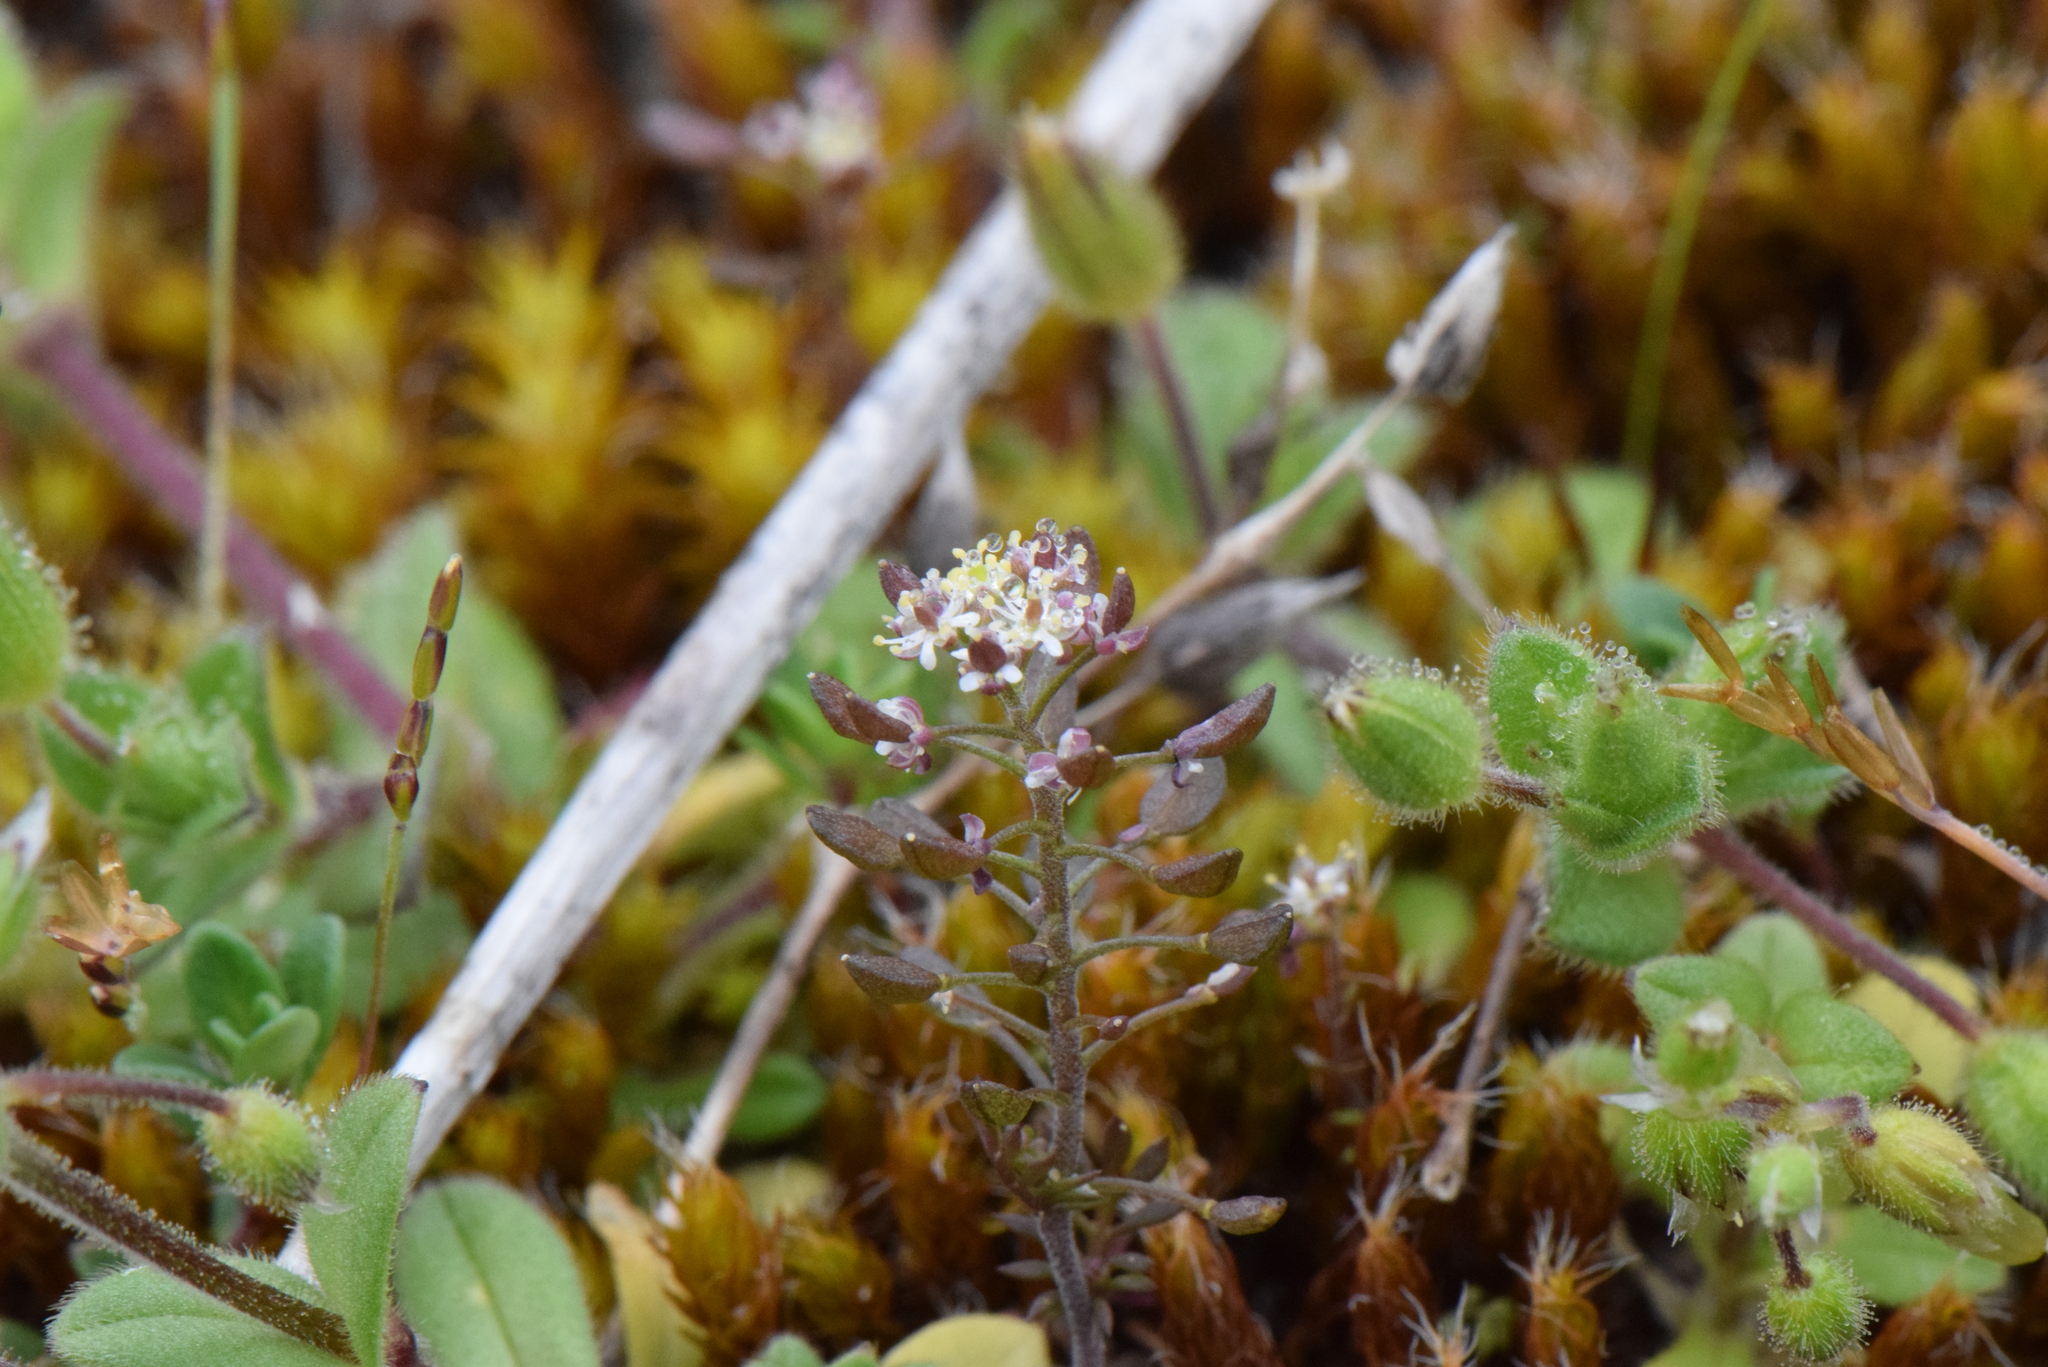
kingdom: Plantae
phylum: Tracheophyta
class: Magnoliopsida
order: Brassicales
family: Brassicaceae
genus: Hornungia
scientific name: Hornungia petraea
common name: Hutchinsia
